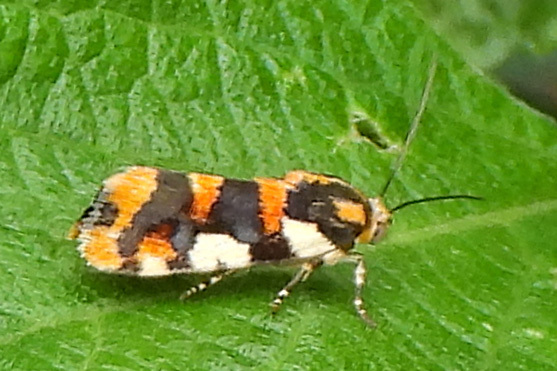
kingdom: Animalia
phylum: Arthropoda
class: Insecta
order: Lepidoptera
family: Noctuidae
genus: Acontia
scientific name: Acontia dama
